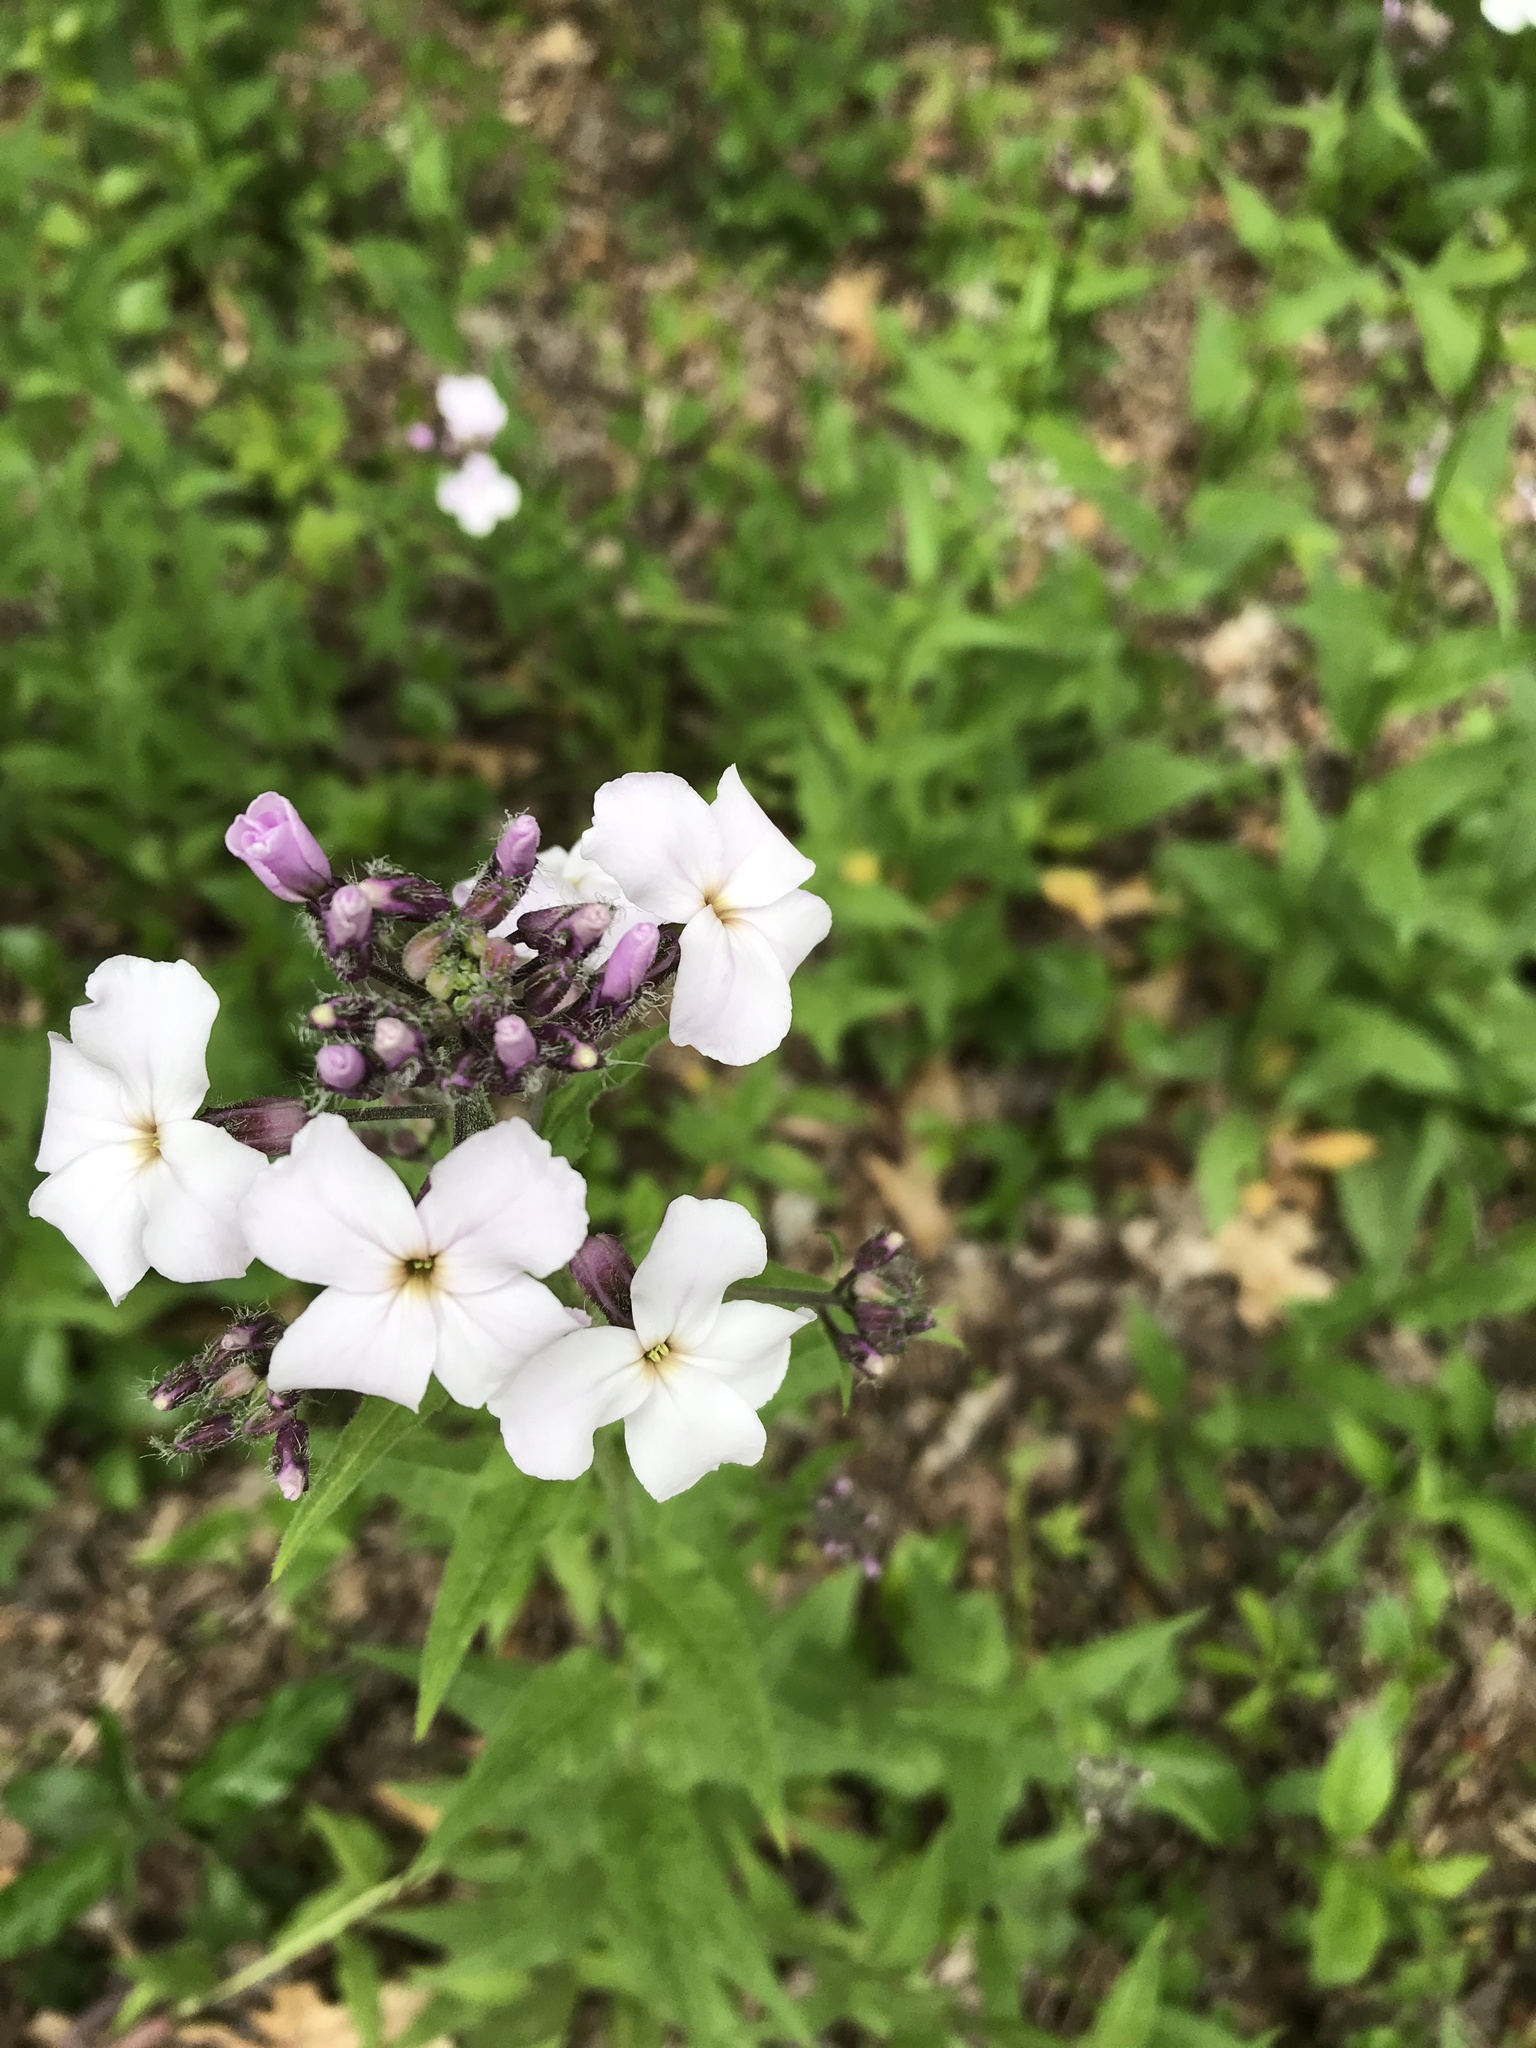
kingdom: Plantae
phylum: Tracheophyta
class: Magnoliopsida
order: Brassicales
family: Brassicaceae
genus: Hesperis
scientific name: Hesperis matronalis
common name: Dame's-violet
